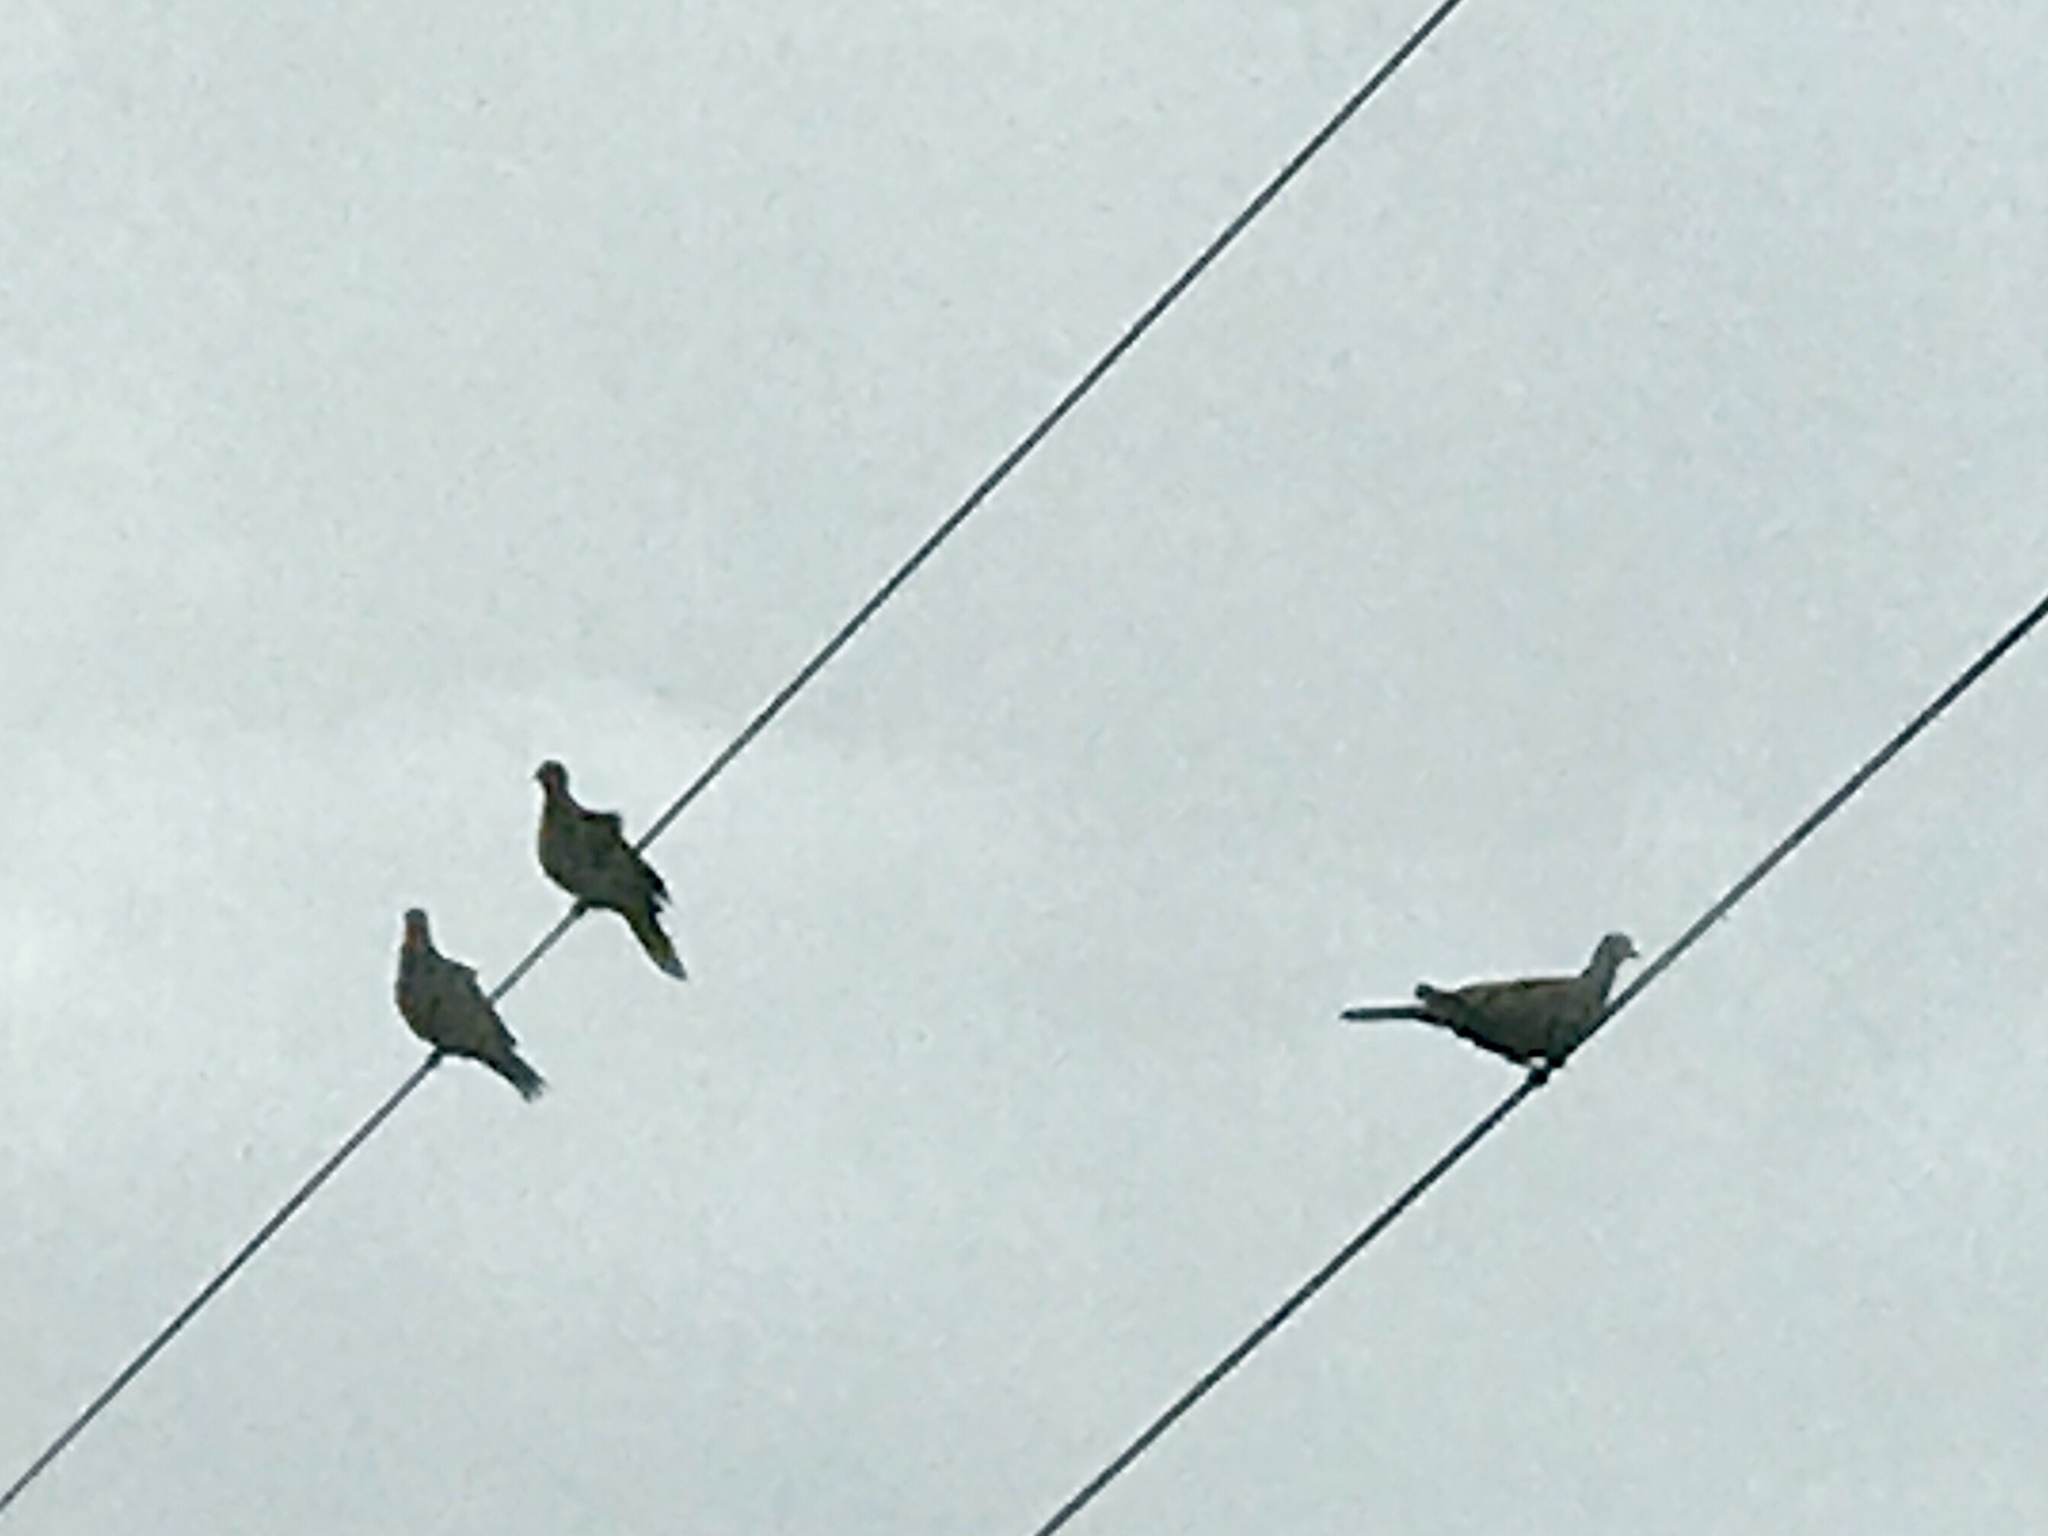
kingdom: Animalia
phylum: Chordata
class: Aves
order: Columbiformes
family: Columbidae
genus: Zenaida
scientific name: Zenaida macroura
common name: Mourning dove
